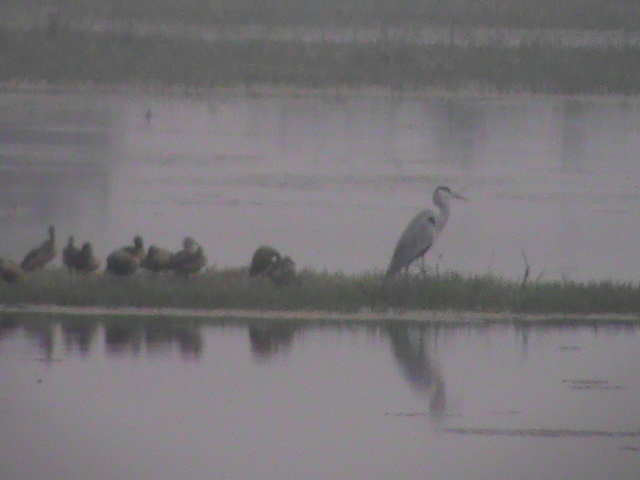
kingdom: Animalia
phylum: Chordata
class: Aves
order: Pelecaniformes
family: Ardeidae
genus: Ardea
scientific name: Ardea cinerea
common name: Grey heron
